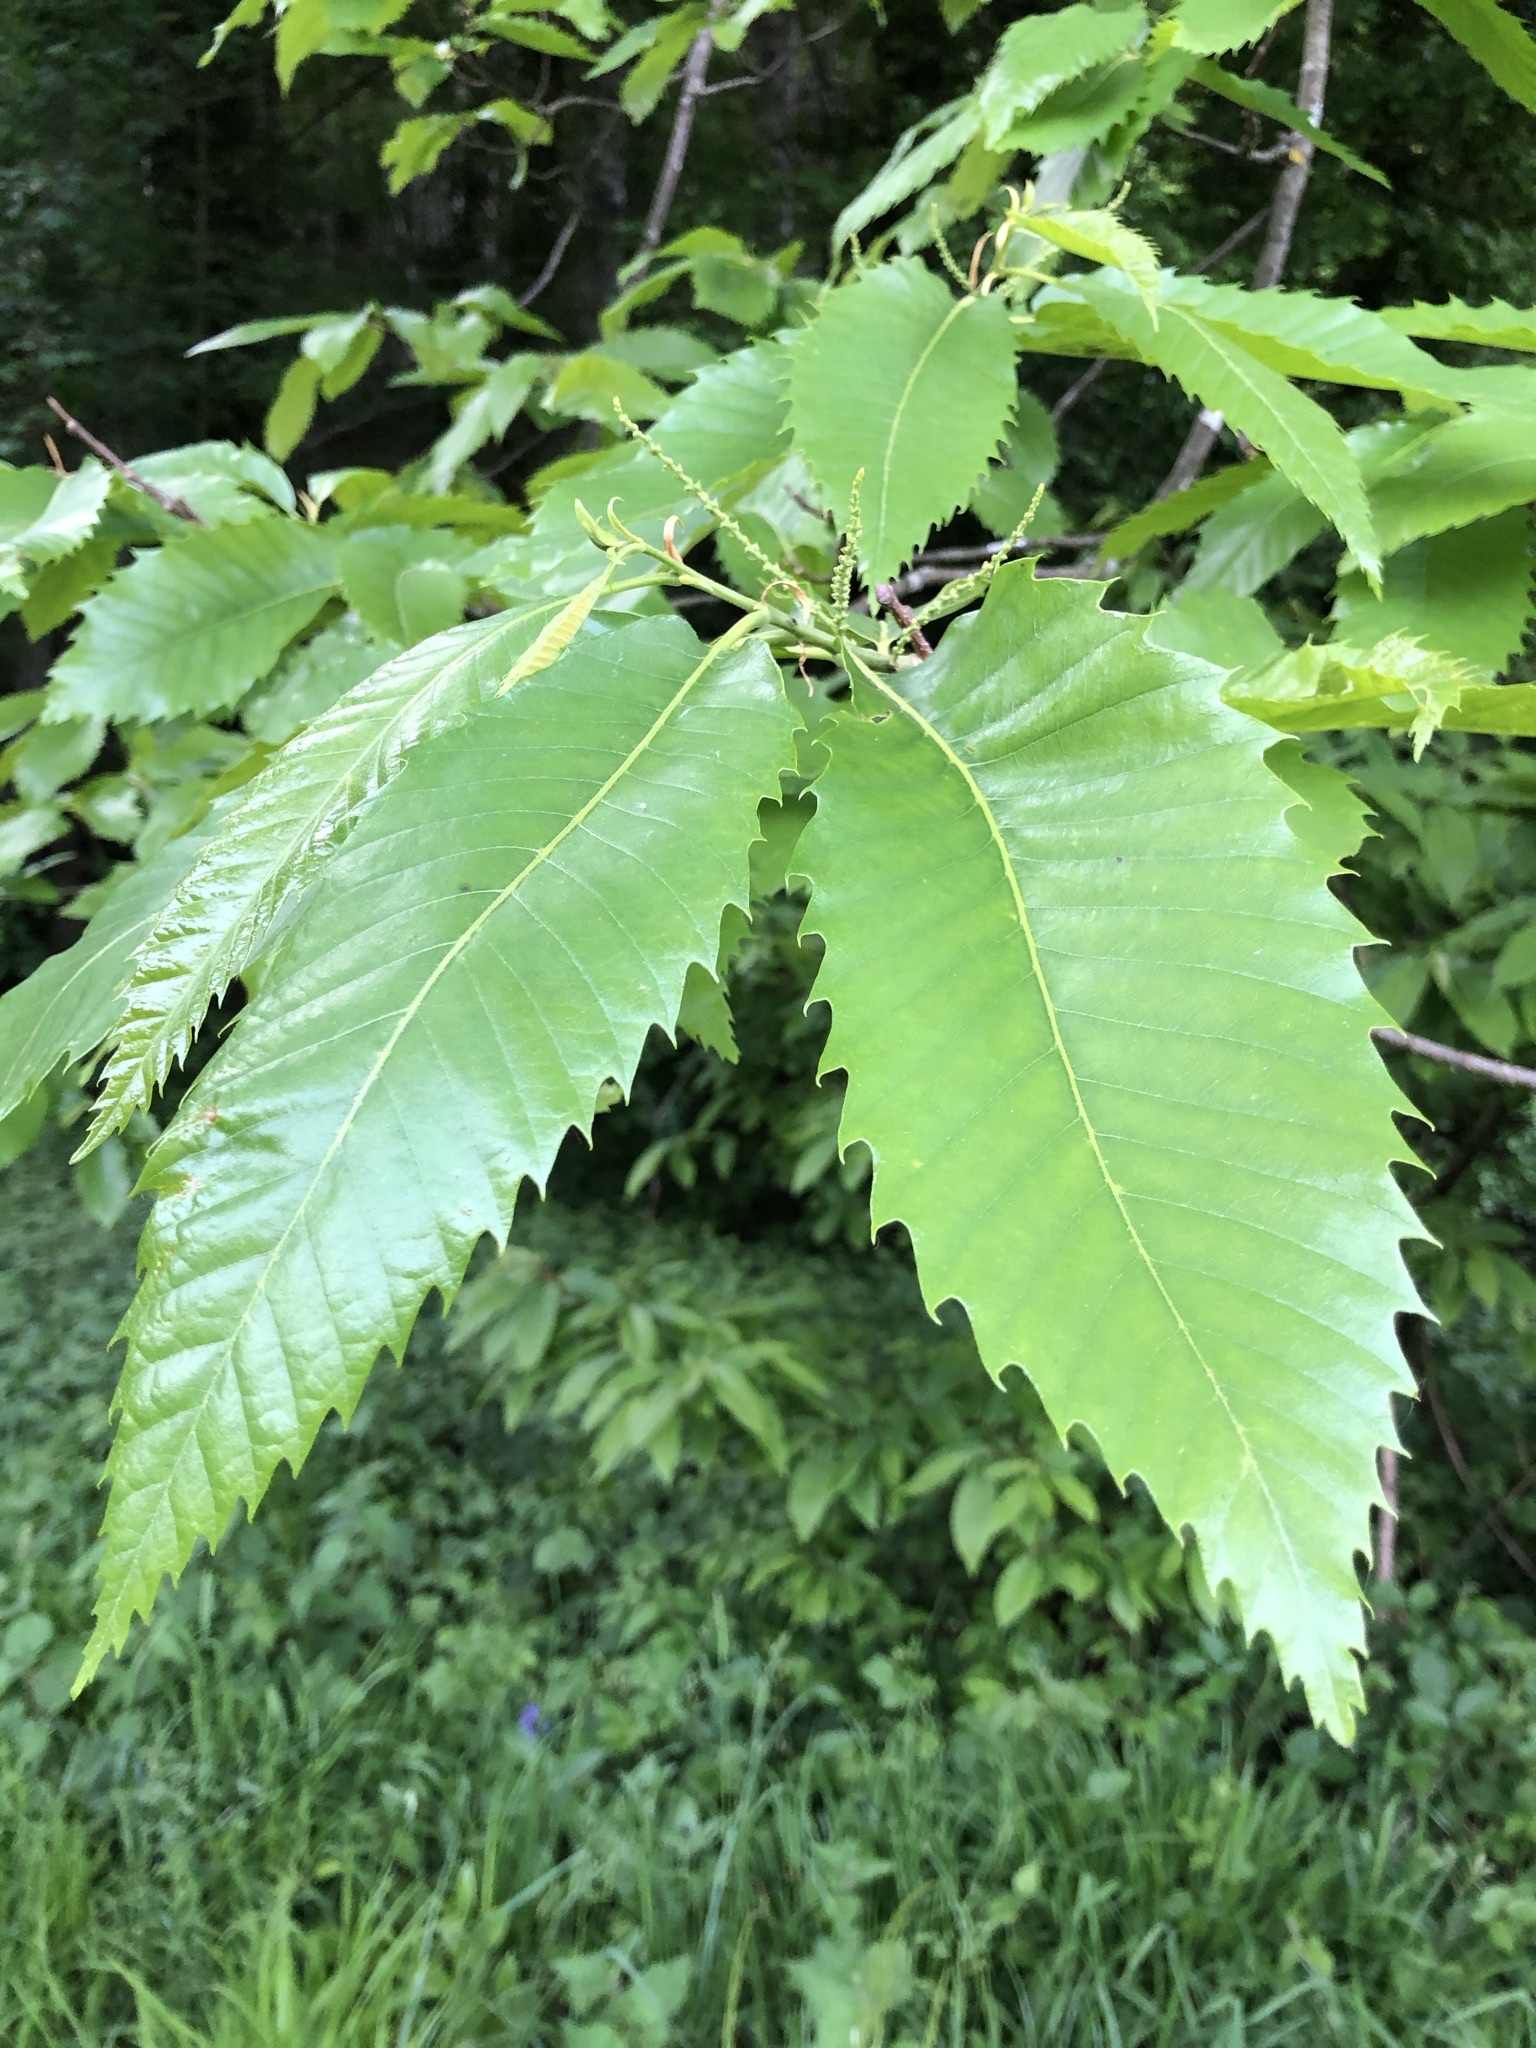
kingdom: Plantae
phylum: Tracheophyta
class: Magnoliopsida
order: Fagales
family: Fagaceae
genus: Castanea
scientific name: Castanea sativa
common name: Sweet chestnut
